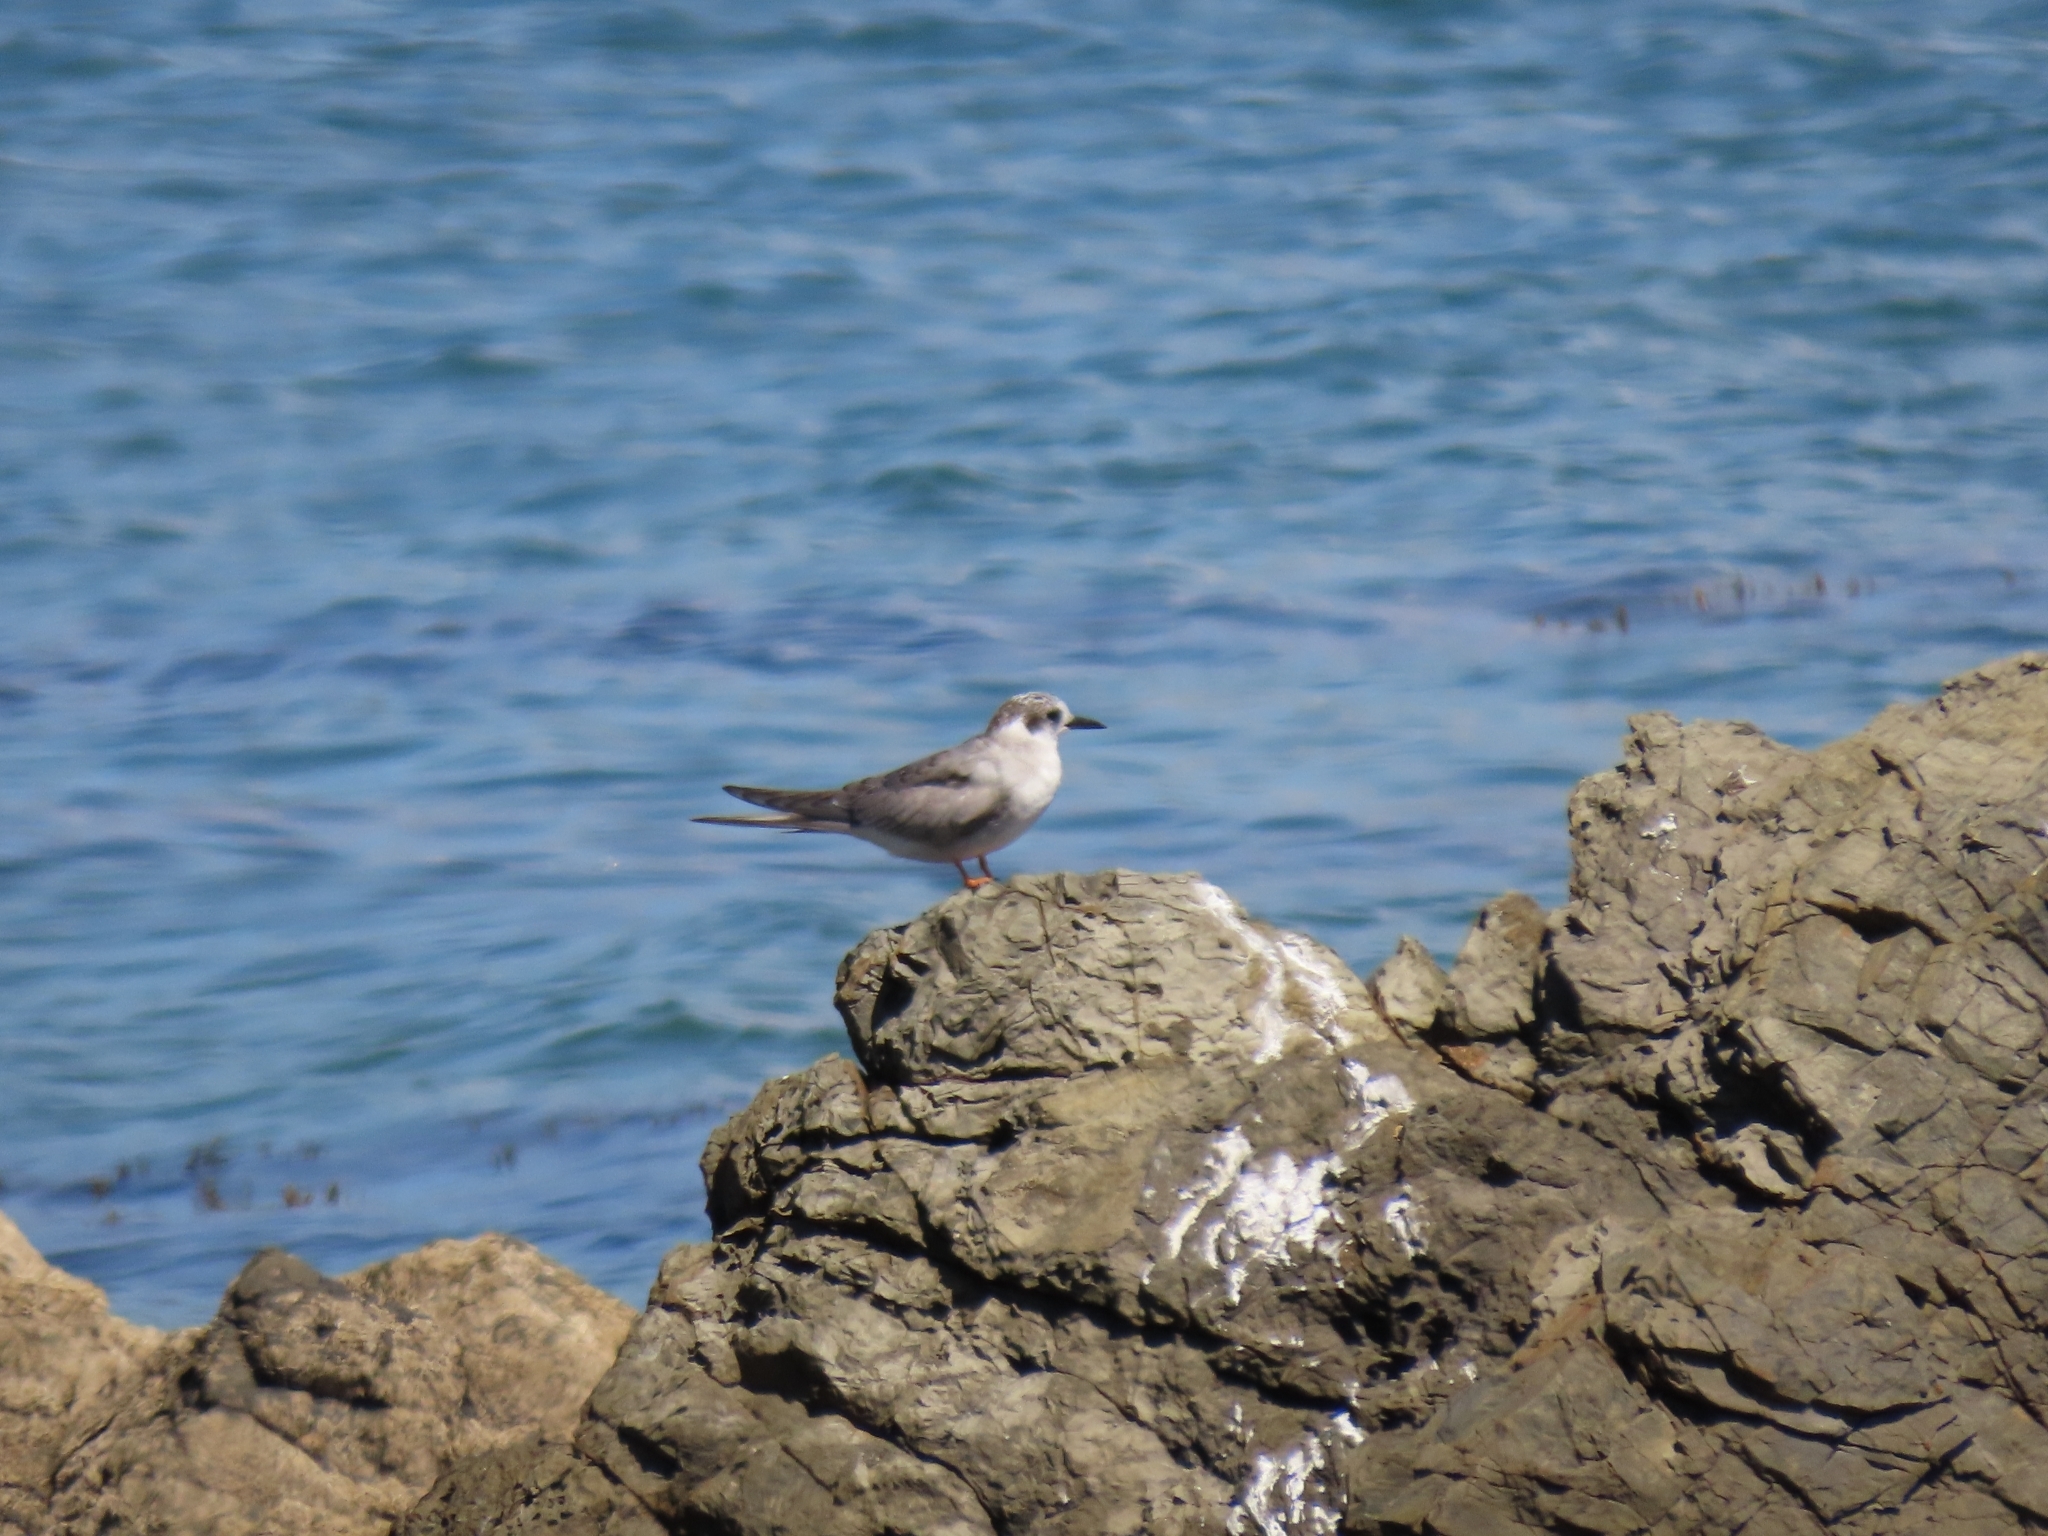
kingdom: Animalia
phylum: Chordata
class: Aves
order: Charadriiformes
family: Laridae
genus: Chlidonias
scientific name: Chlidonias albostriatus
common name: Black-fronted tern
